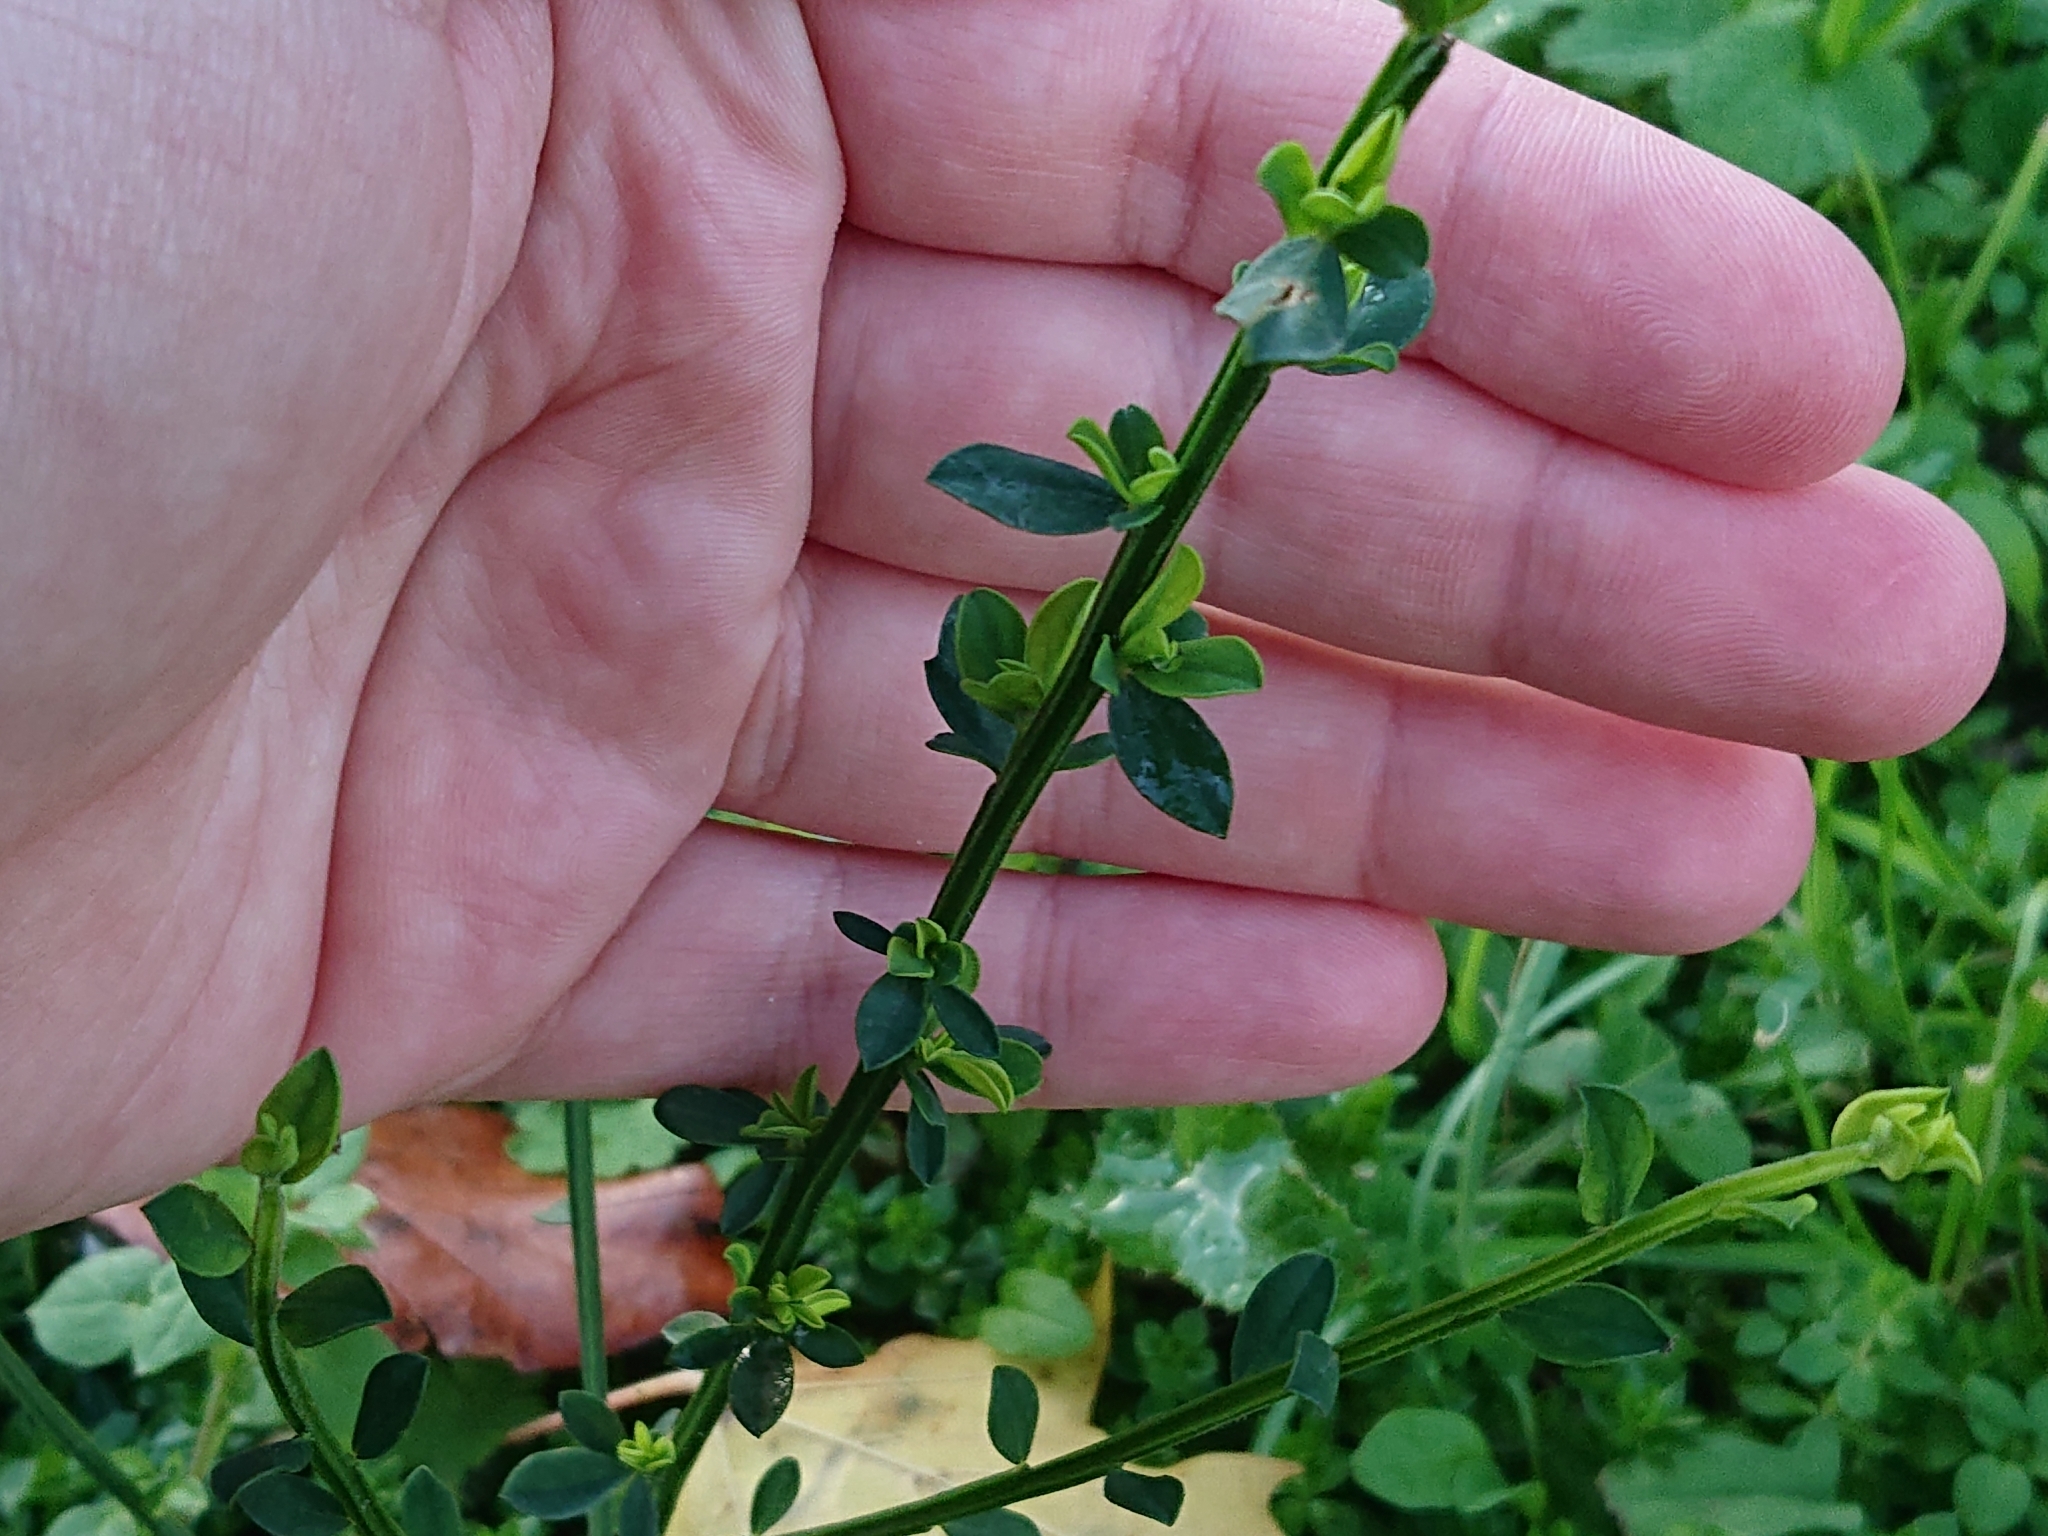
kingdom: Plantae
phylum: Tracheophyta
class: Magnoliopsida
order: Fabales
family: Fabaceae
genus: Cytisus
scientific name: Cytisus scoparius
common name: Scotch broom
